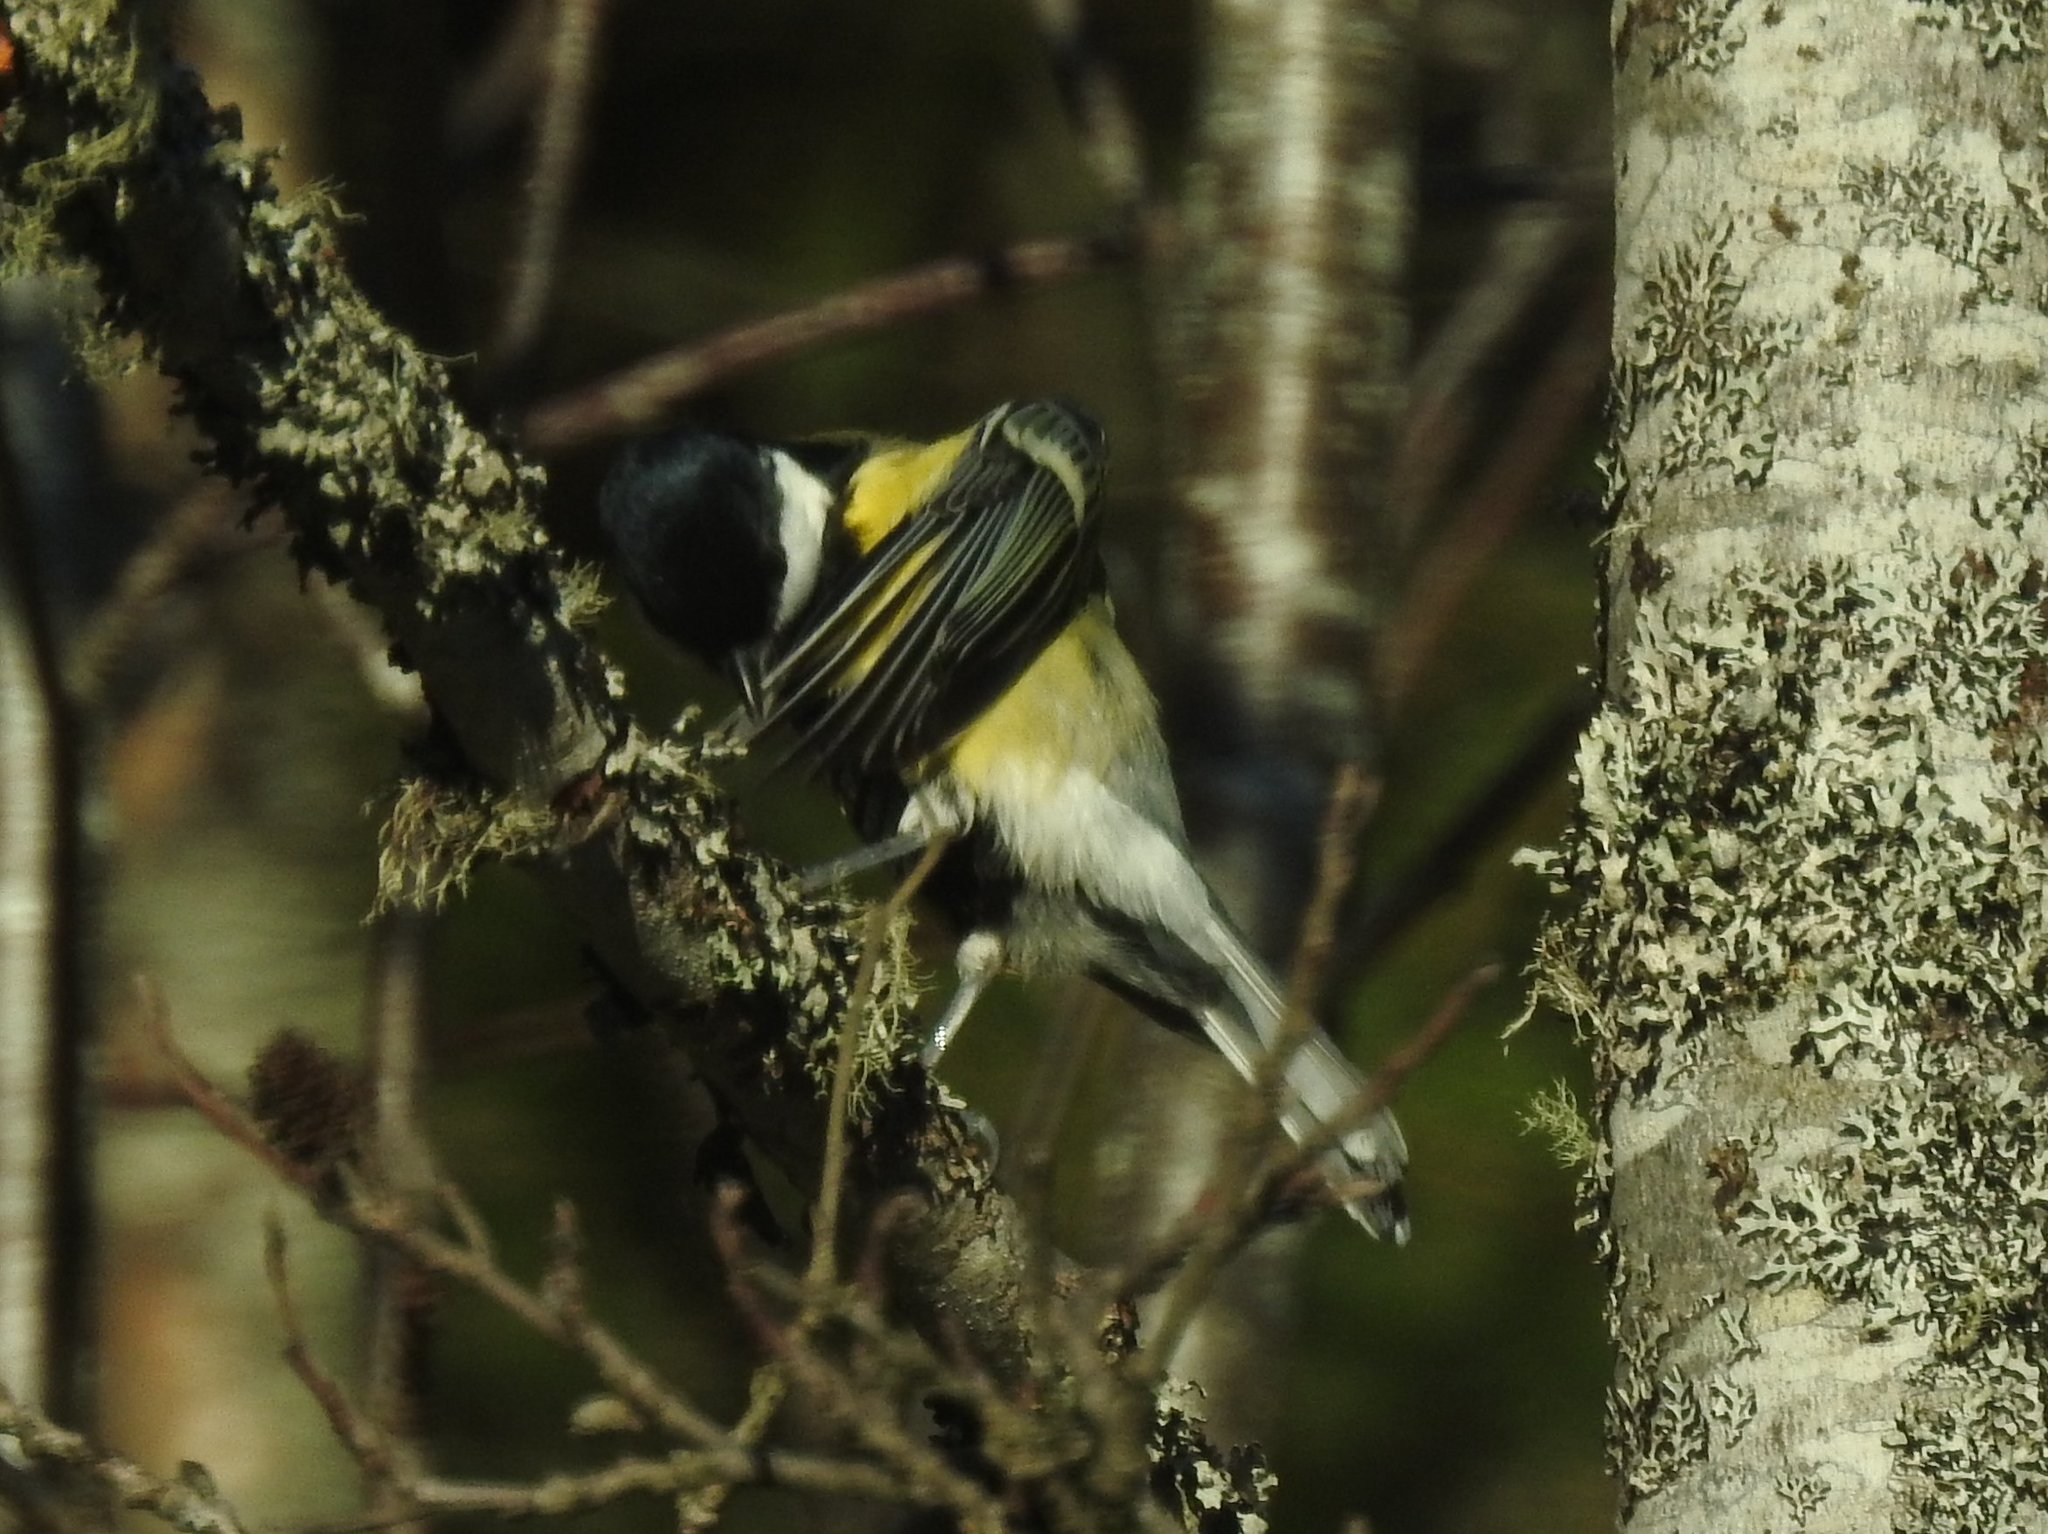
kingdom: Animalia
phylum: Chordata
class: Aves
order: Passeriformes
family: Paridae
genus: Parus
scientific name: Parus major
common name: Great tit
